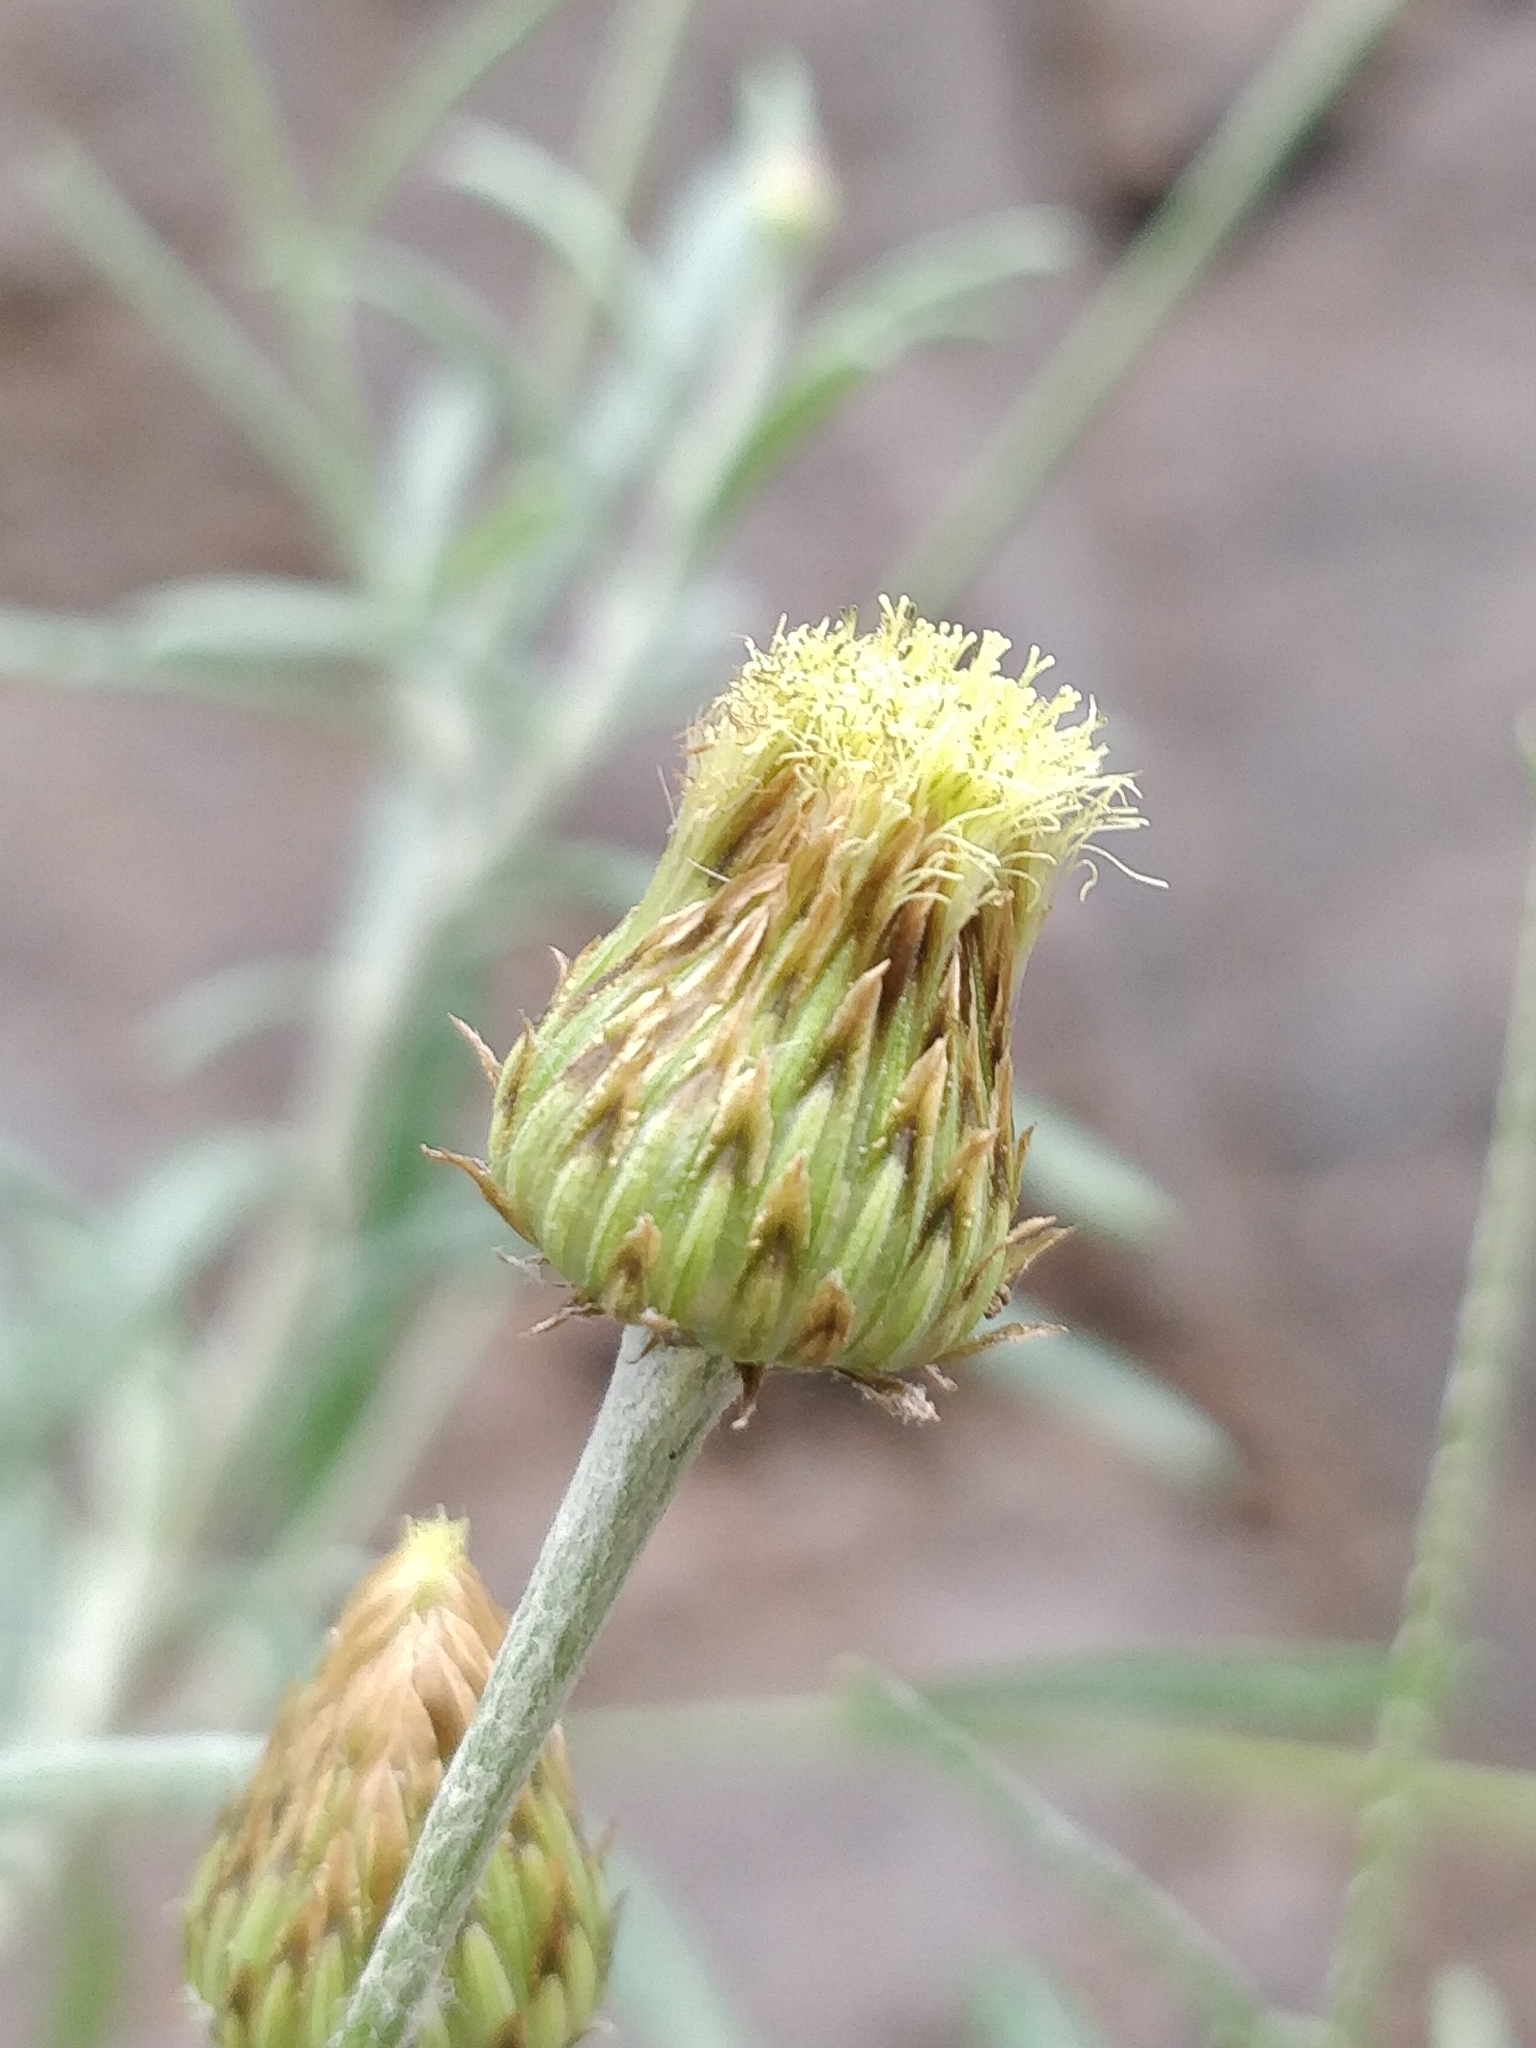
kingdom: Plantae
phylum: Tracheophyta
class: Magnoliopsida
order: Asterales
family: Asteraceae
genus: Phagnalon
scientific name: Phagnalon saxatile
